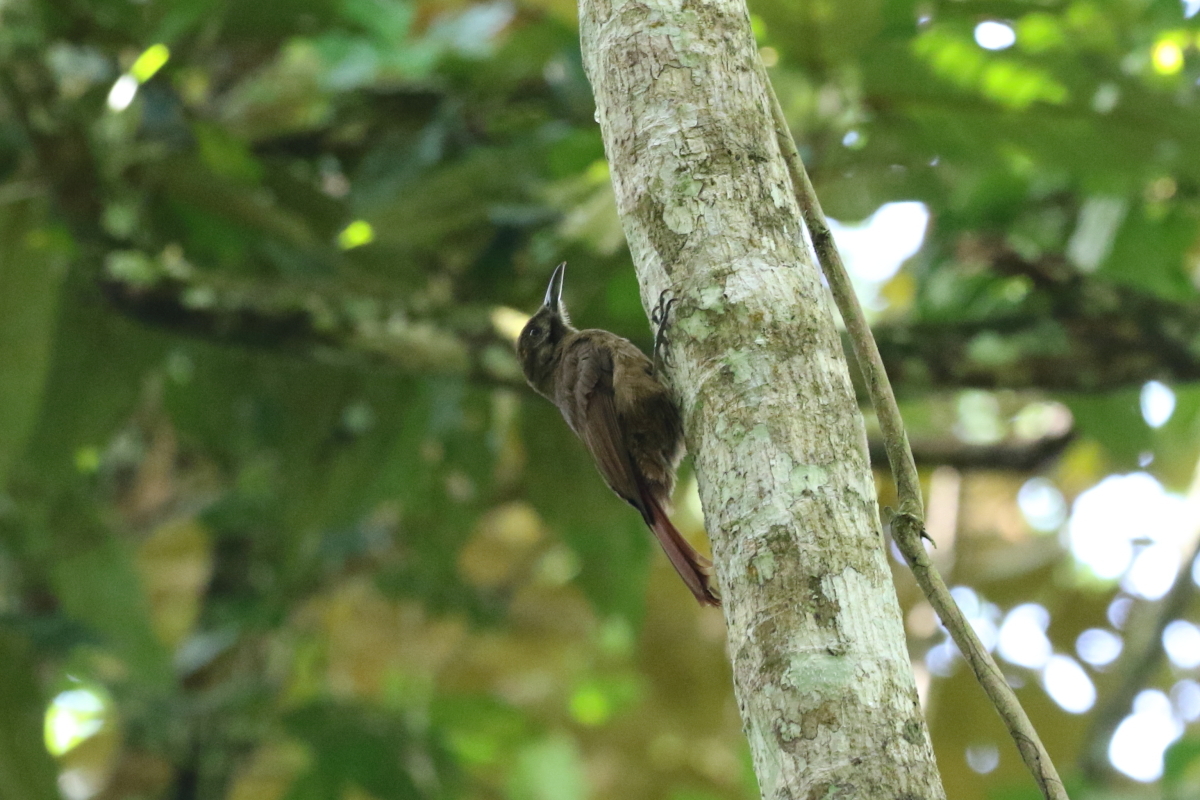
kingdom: Animalia
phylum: Chordata
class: Aves
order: Passeriformes
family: Furnariidae
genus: Dendrocincla
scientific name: Dendrocincla fuliginosa
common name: Plain-brown woodcreeper
